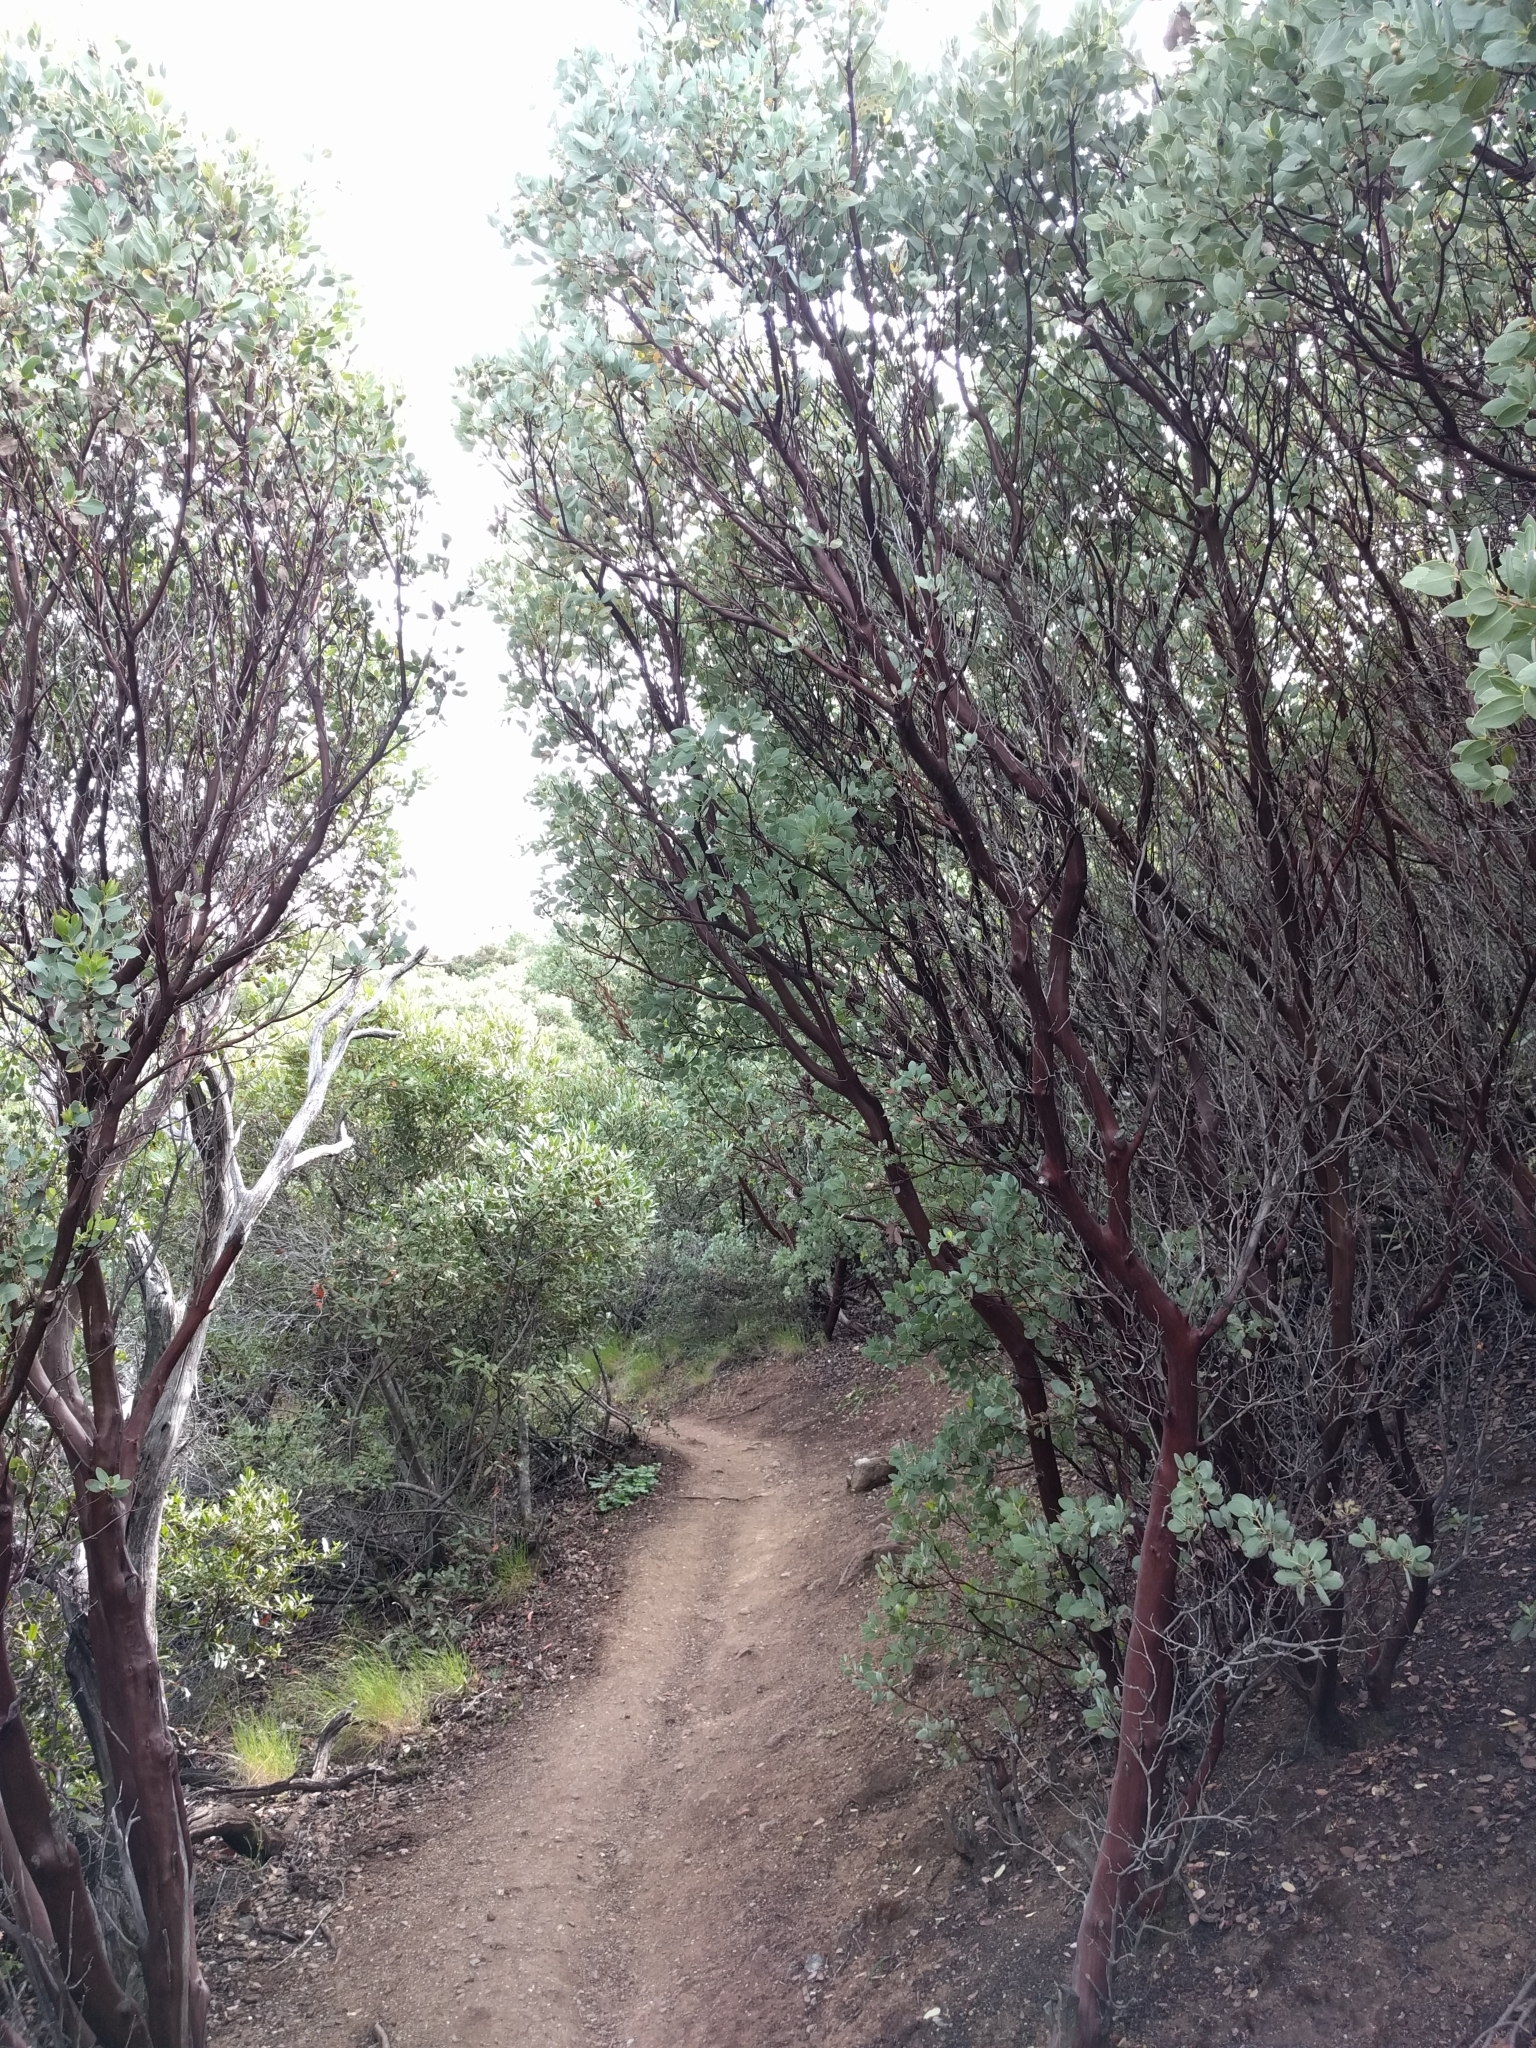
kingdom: Plantae
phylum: Tracheophyta
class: Magnoliopsida
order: Ericales
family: Ericaceae
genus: Arctostaphylos
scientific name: Arctostaphylos glauca
